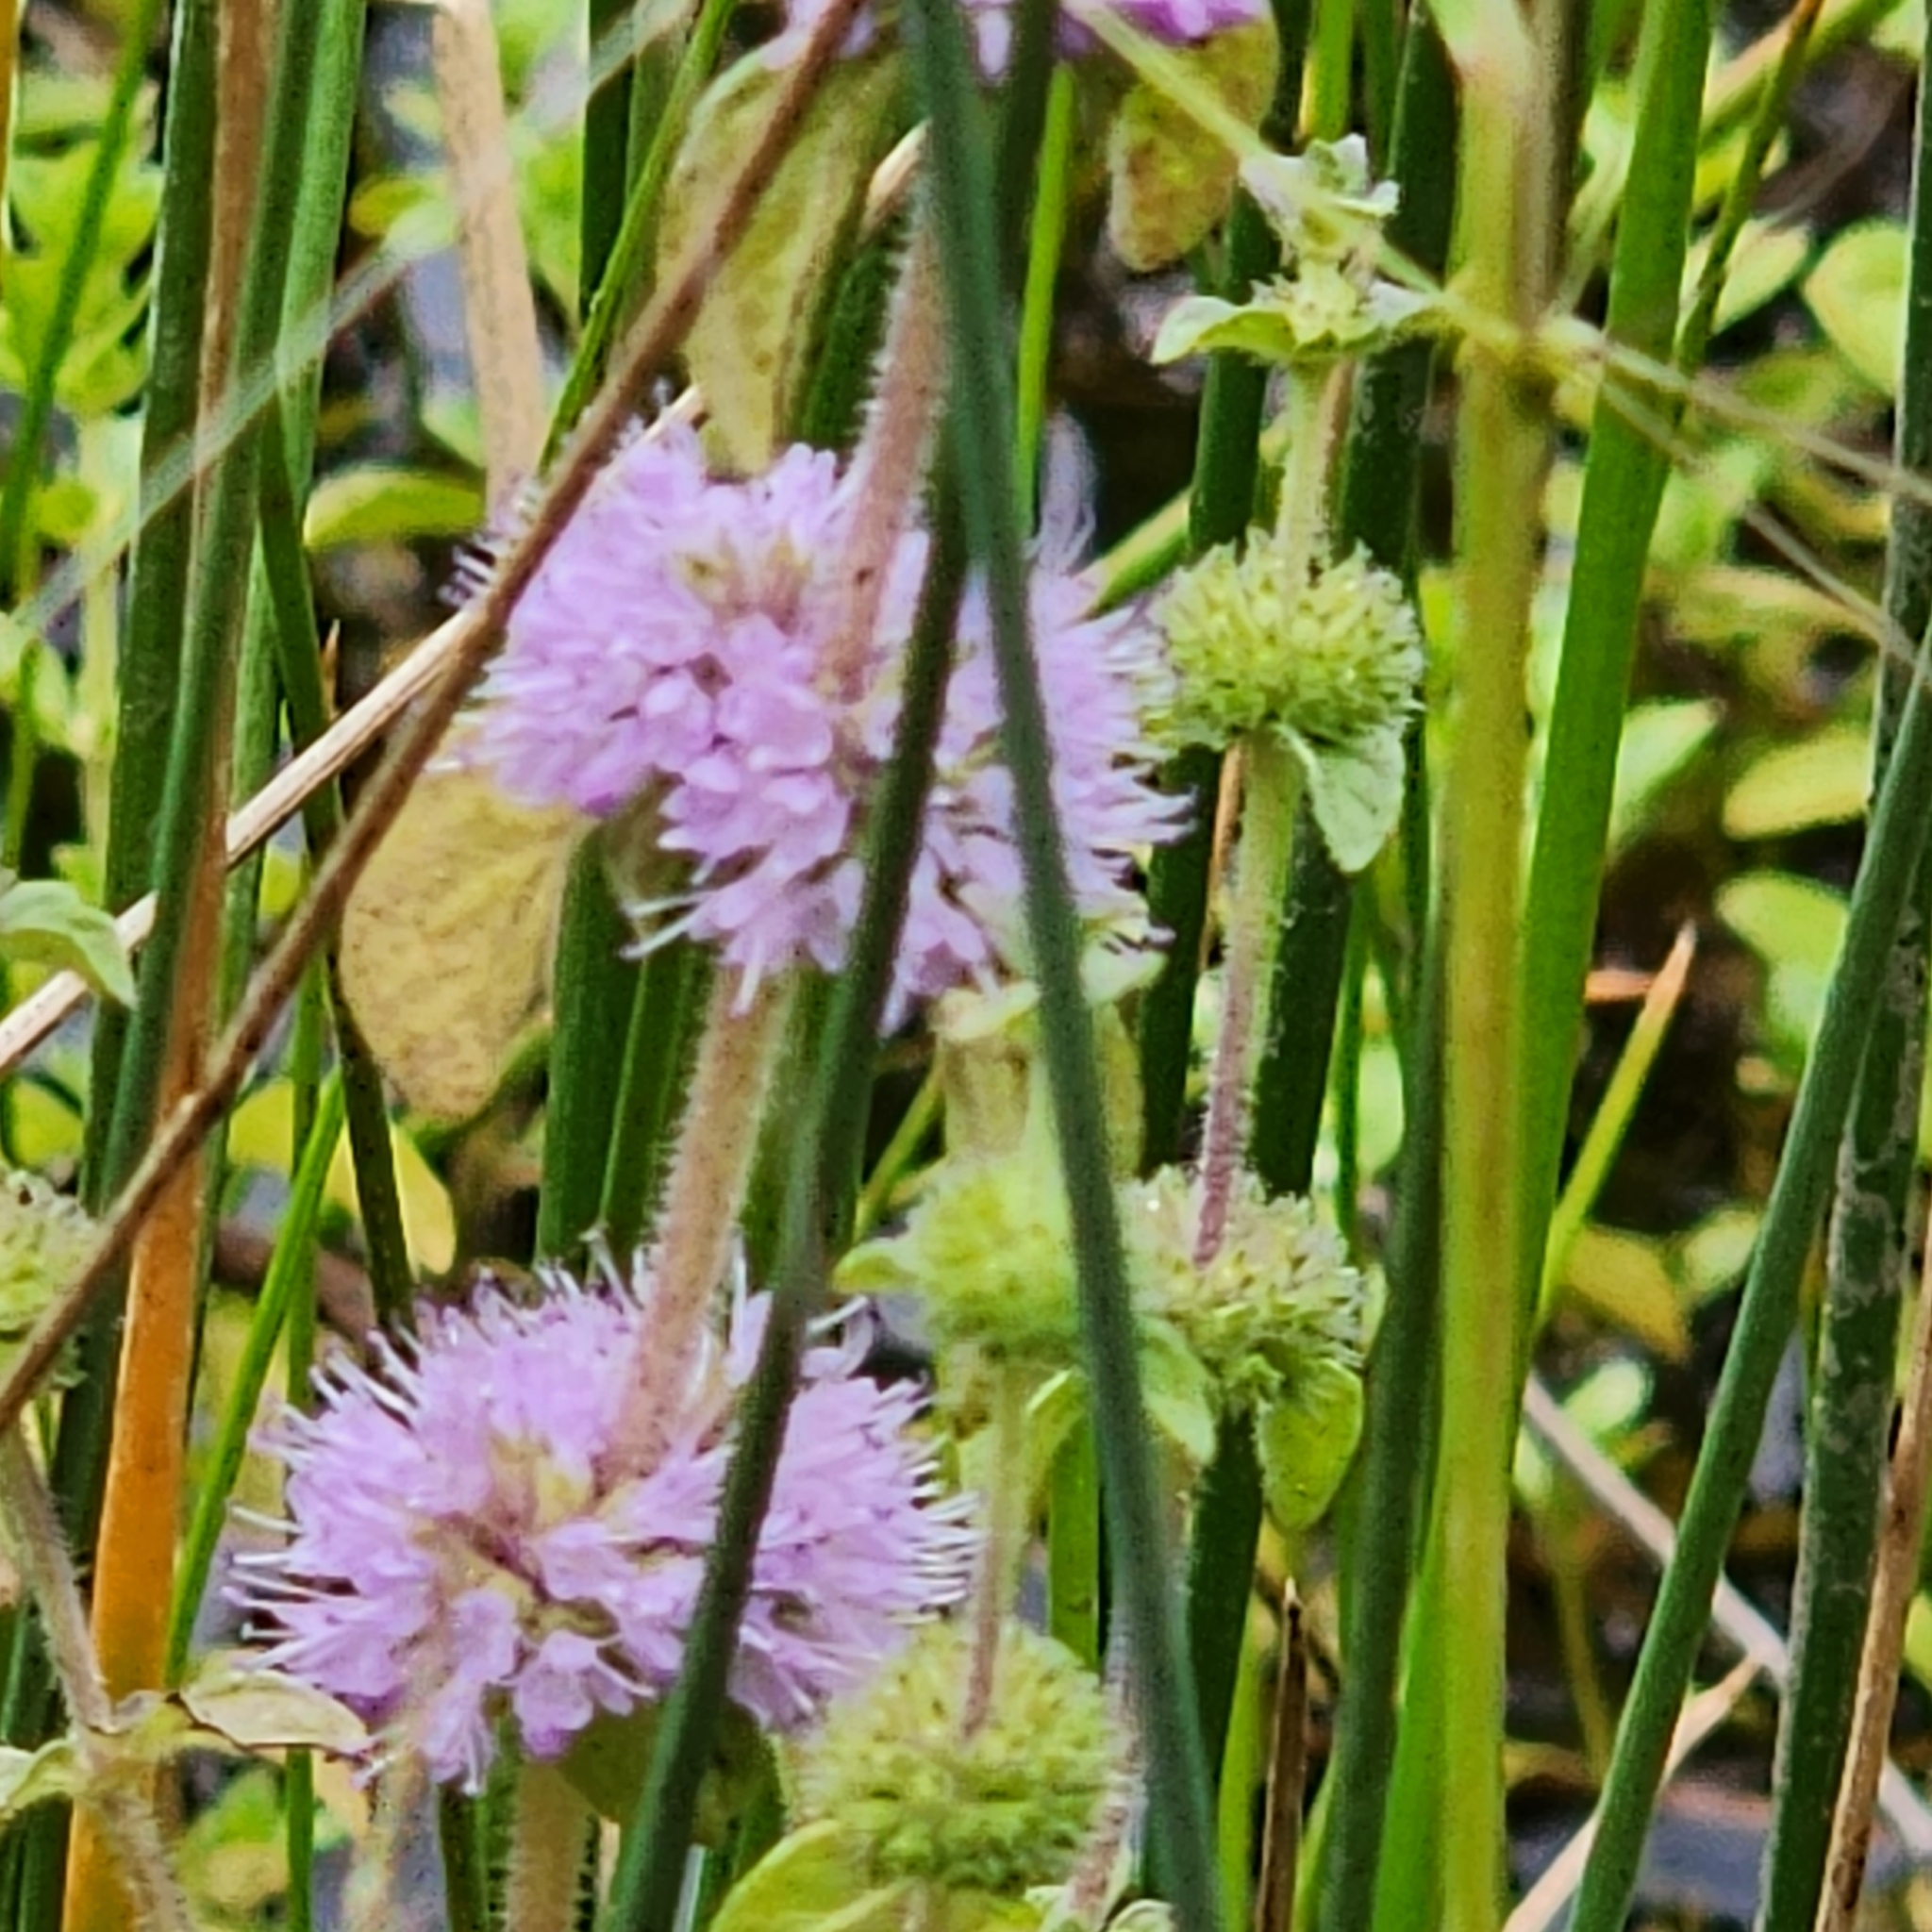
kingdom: Plantae
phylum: Tracheophyta
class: Magnoliopsida
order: Lamiales
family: Lamiaceae
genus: Mentha
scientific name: Mentha pulegium
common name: Pennyroyal
